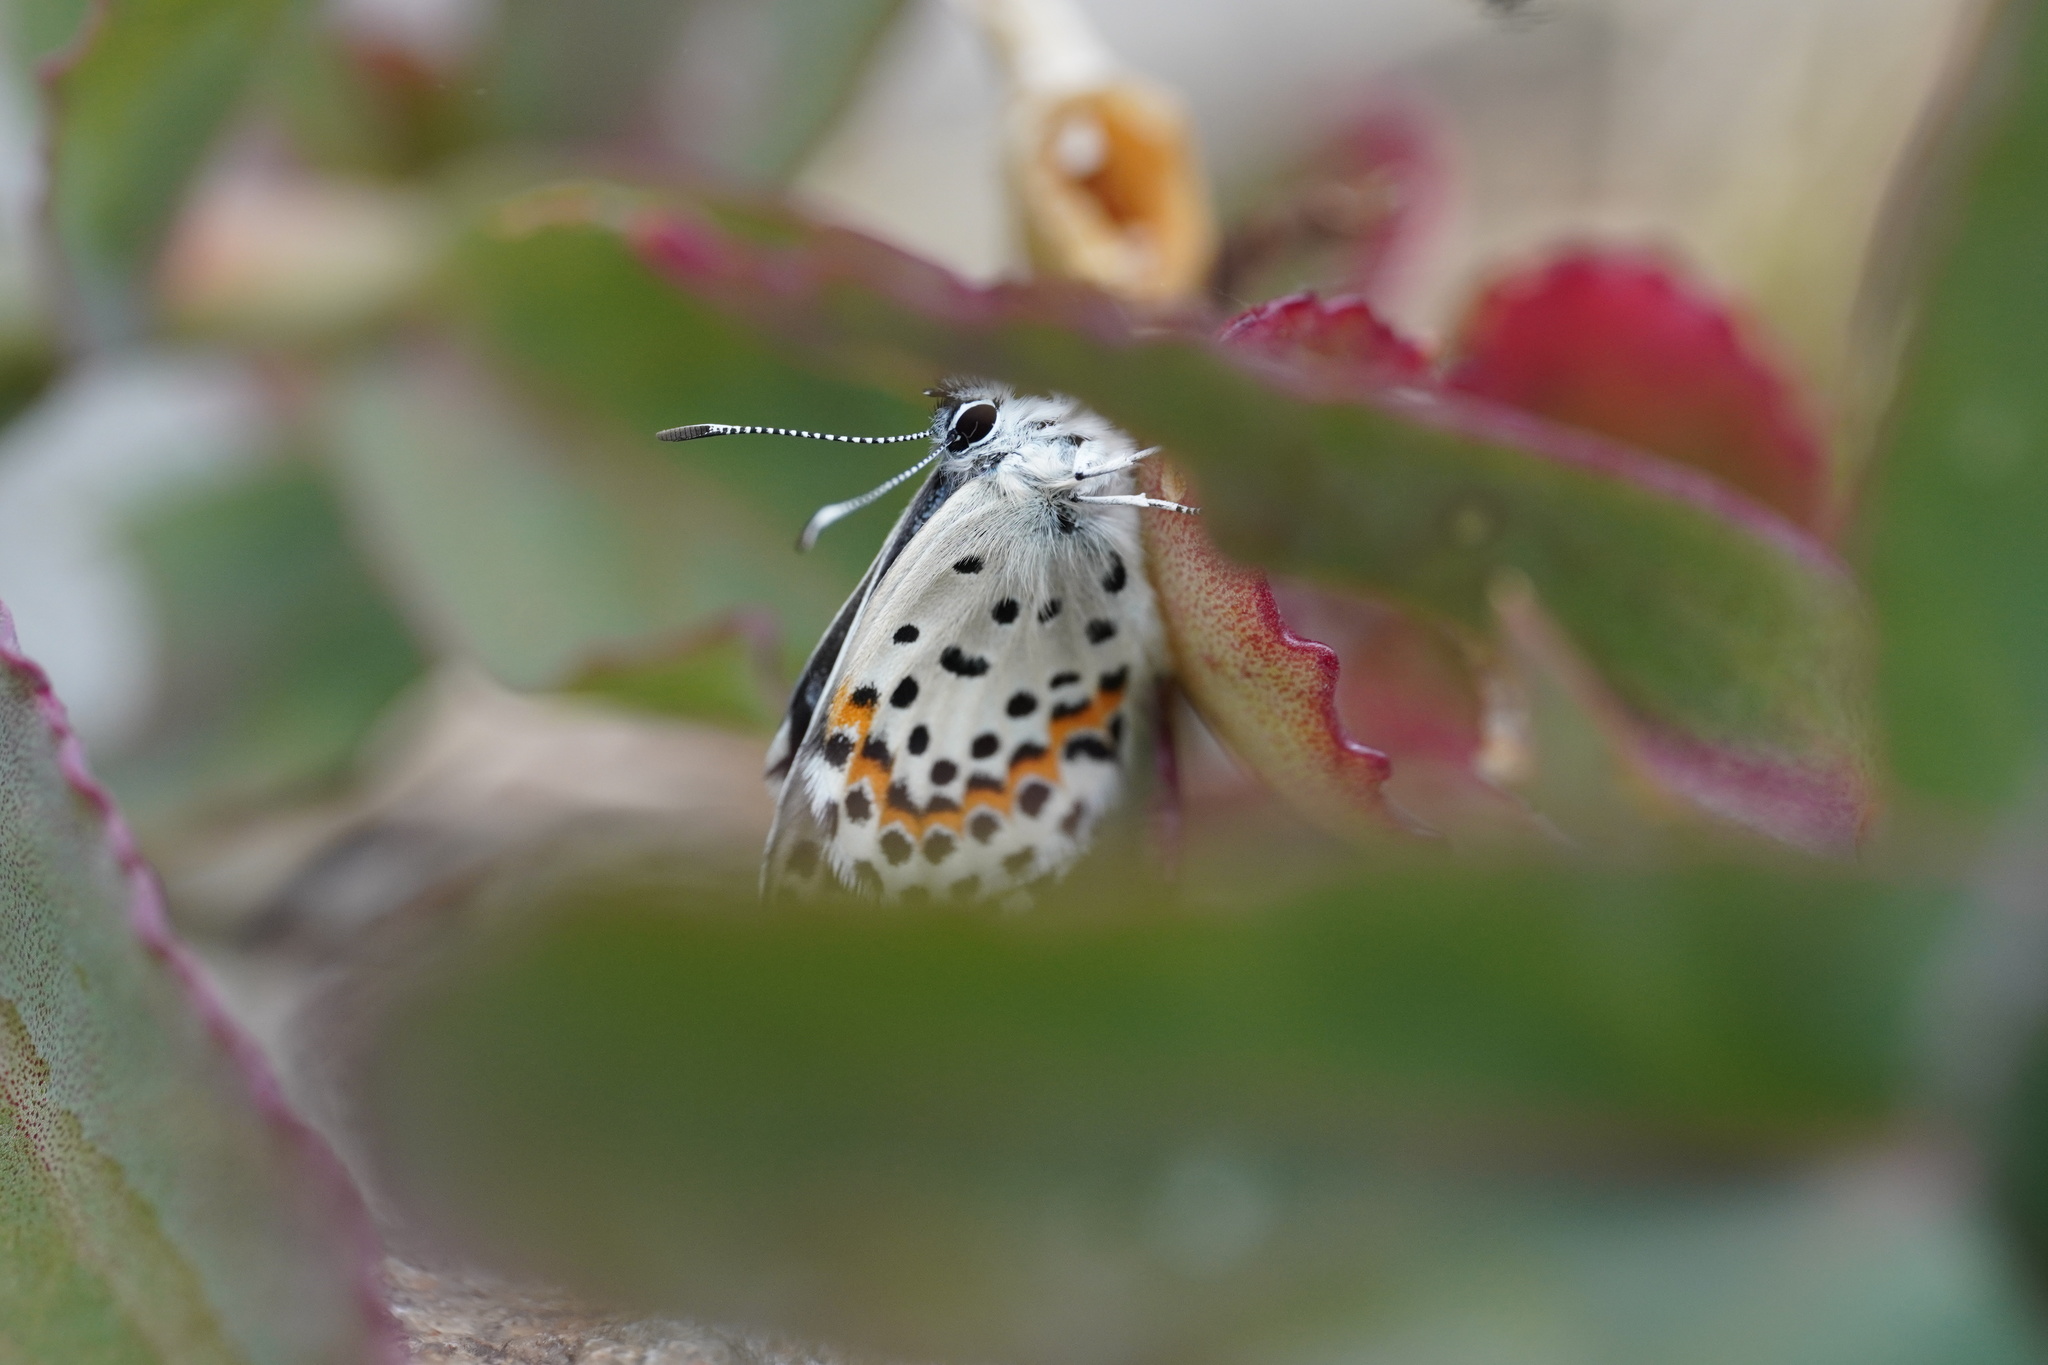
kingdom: Animalia
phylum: Arthropoda
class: Insecta
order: Lepidoptera
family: Lycaenidae
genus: Scolitantides
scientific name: Scolitantides orion
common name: Chequered blue
